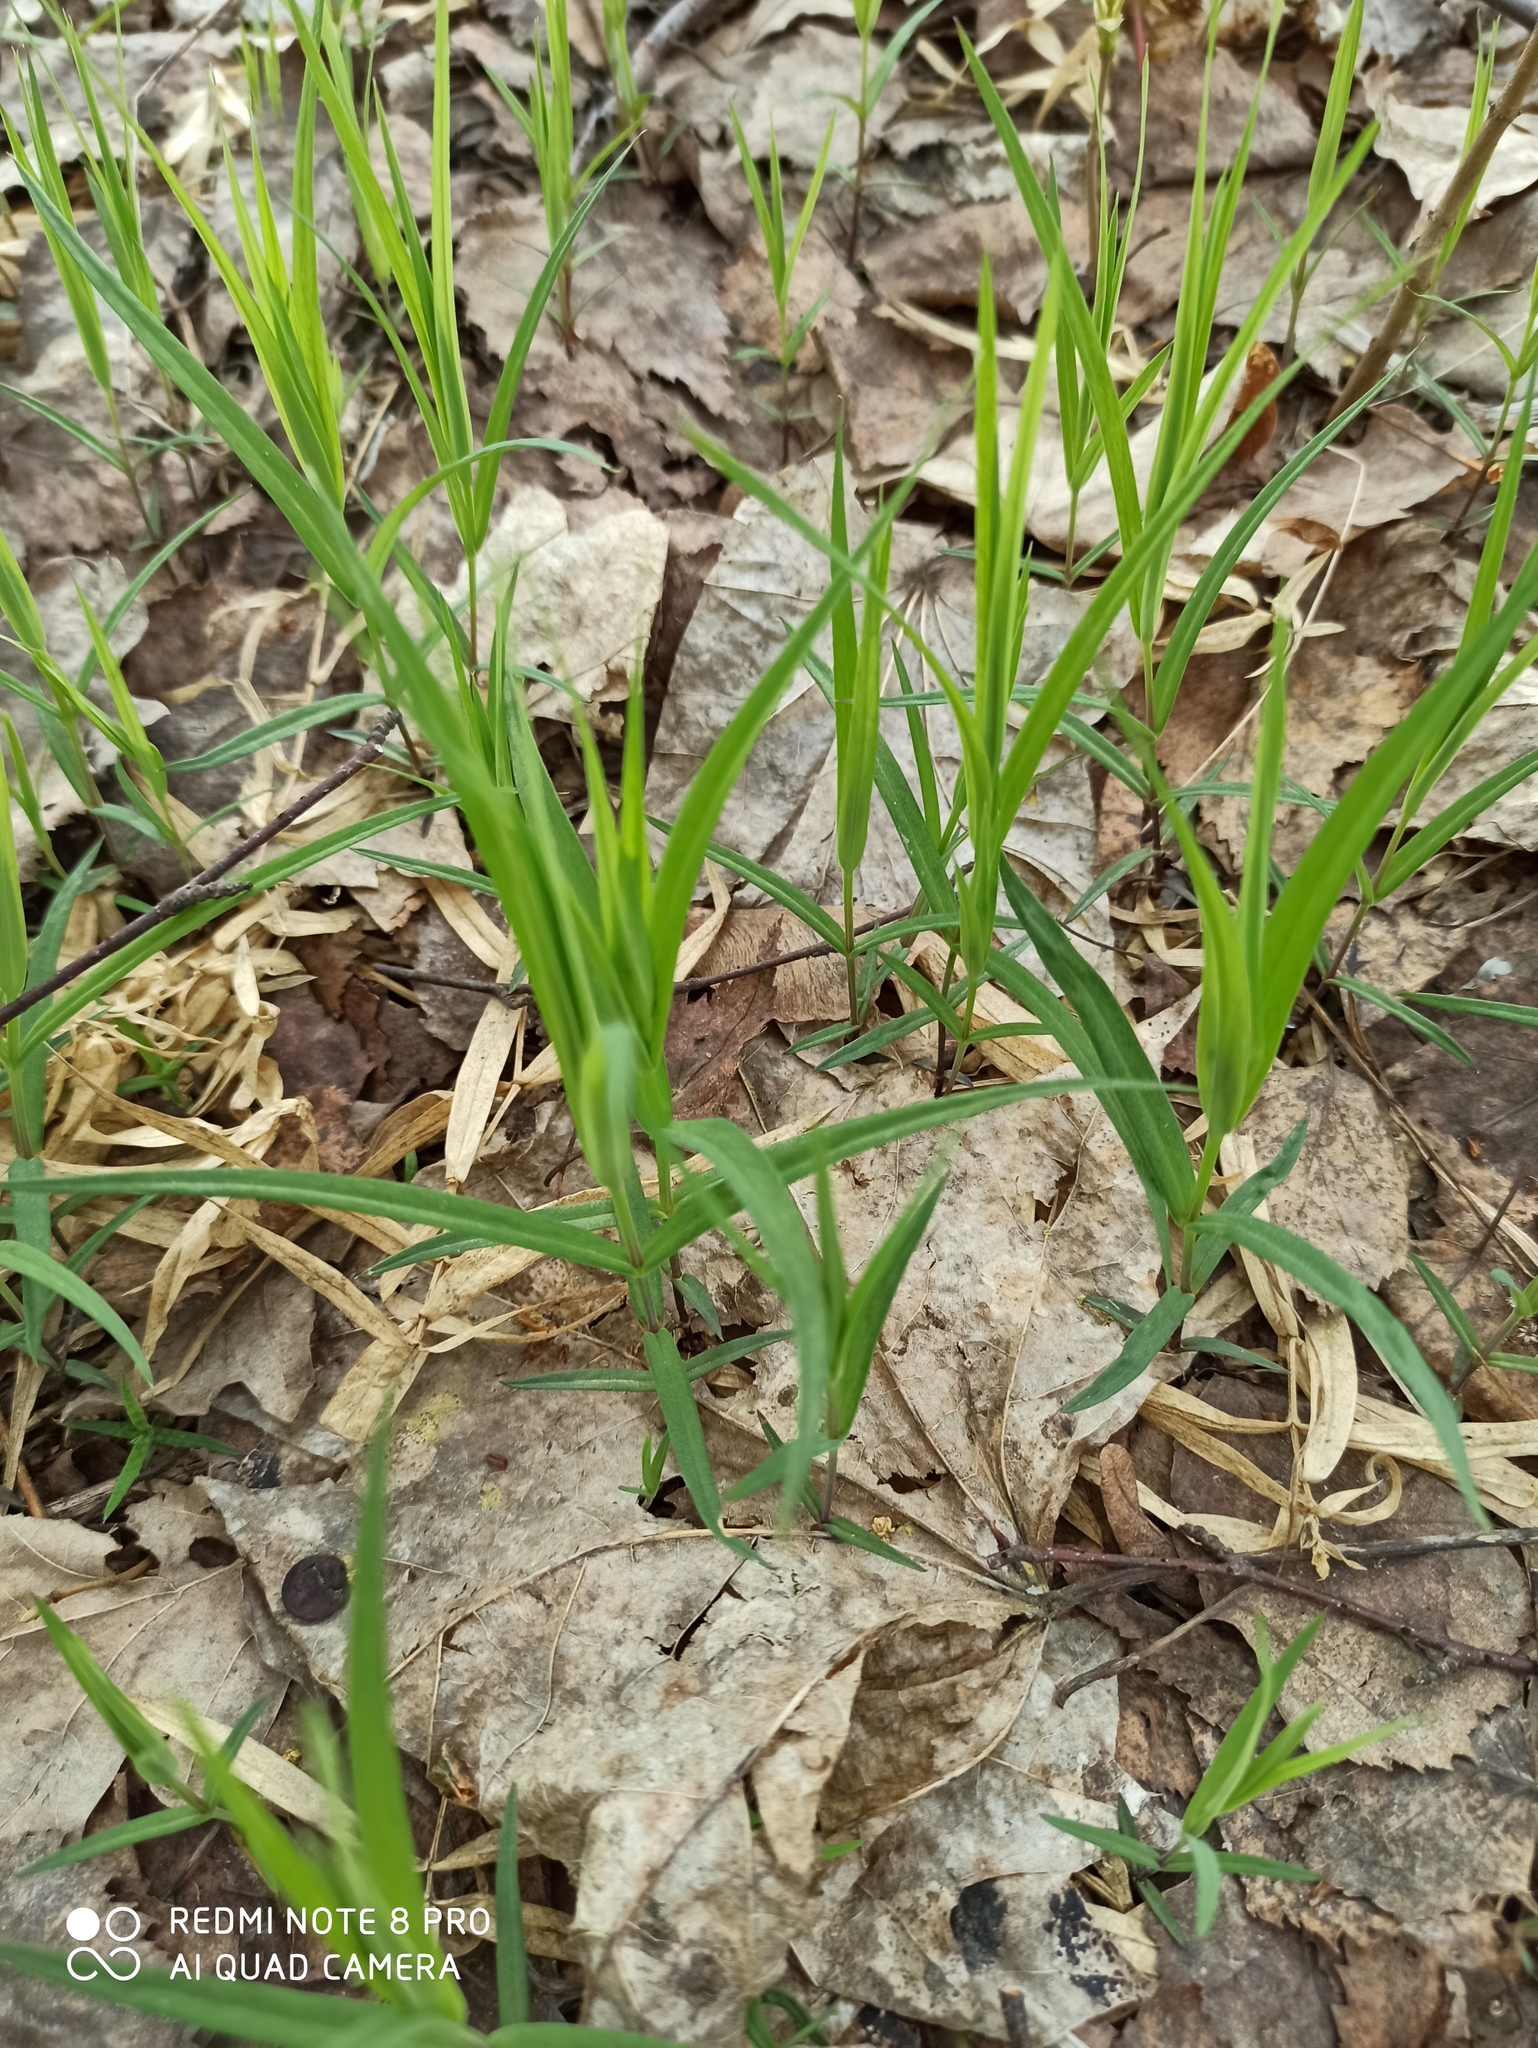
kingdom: Plantae
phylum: Tracheophyta
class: Magnoliopsida
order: Caryophyllales
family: Caryophyllaceae
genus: Rabelera
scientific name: Rabelera holostea
